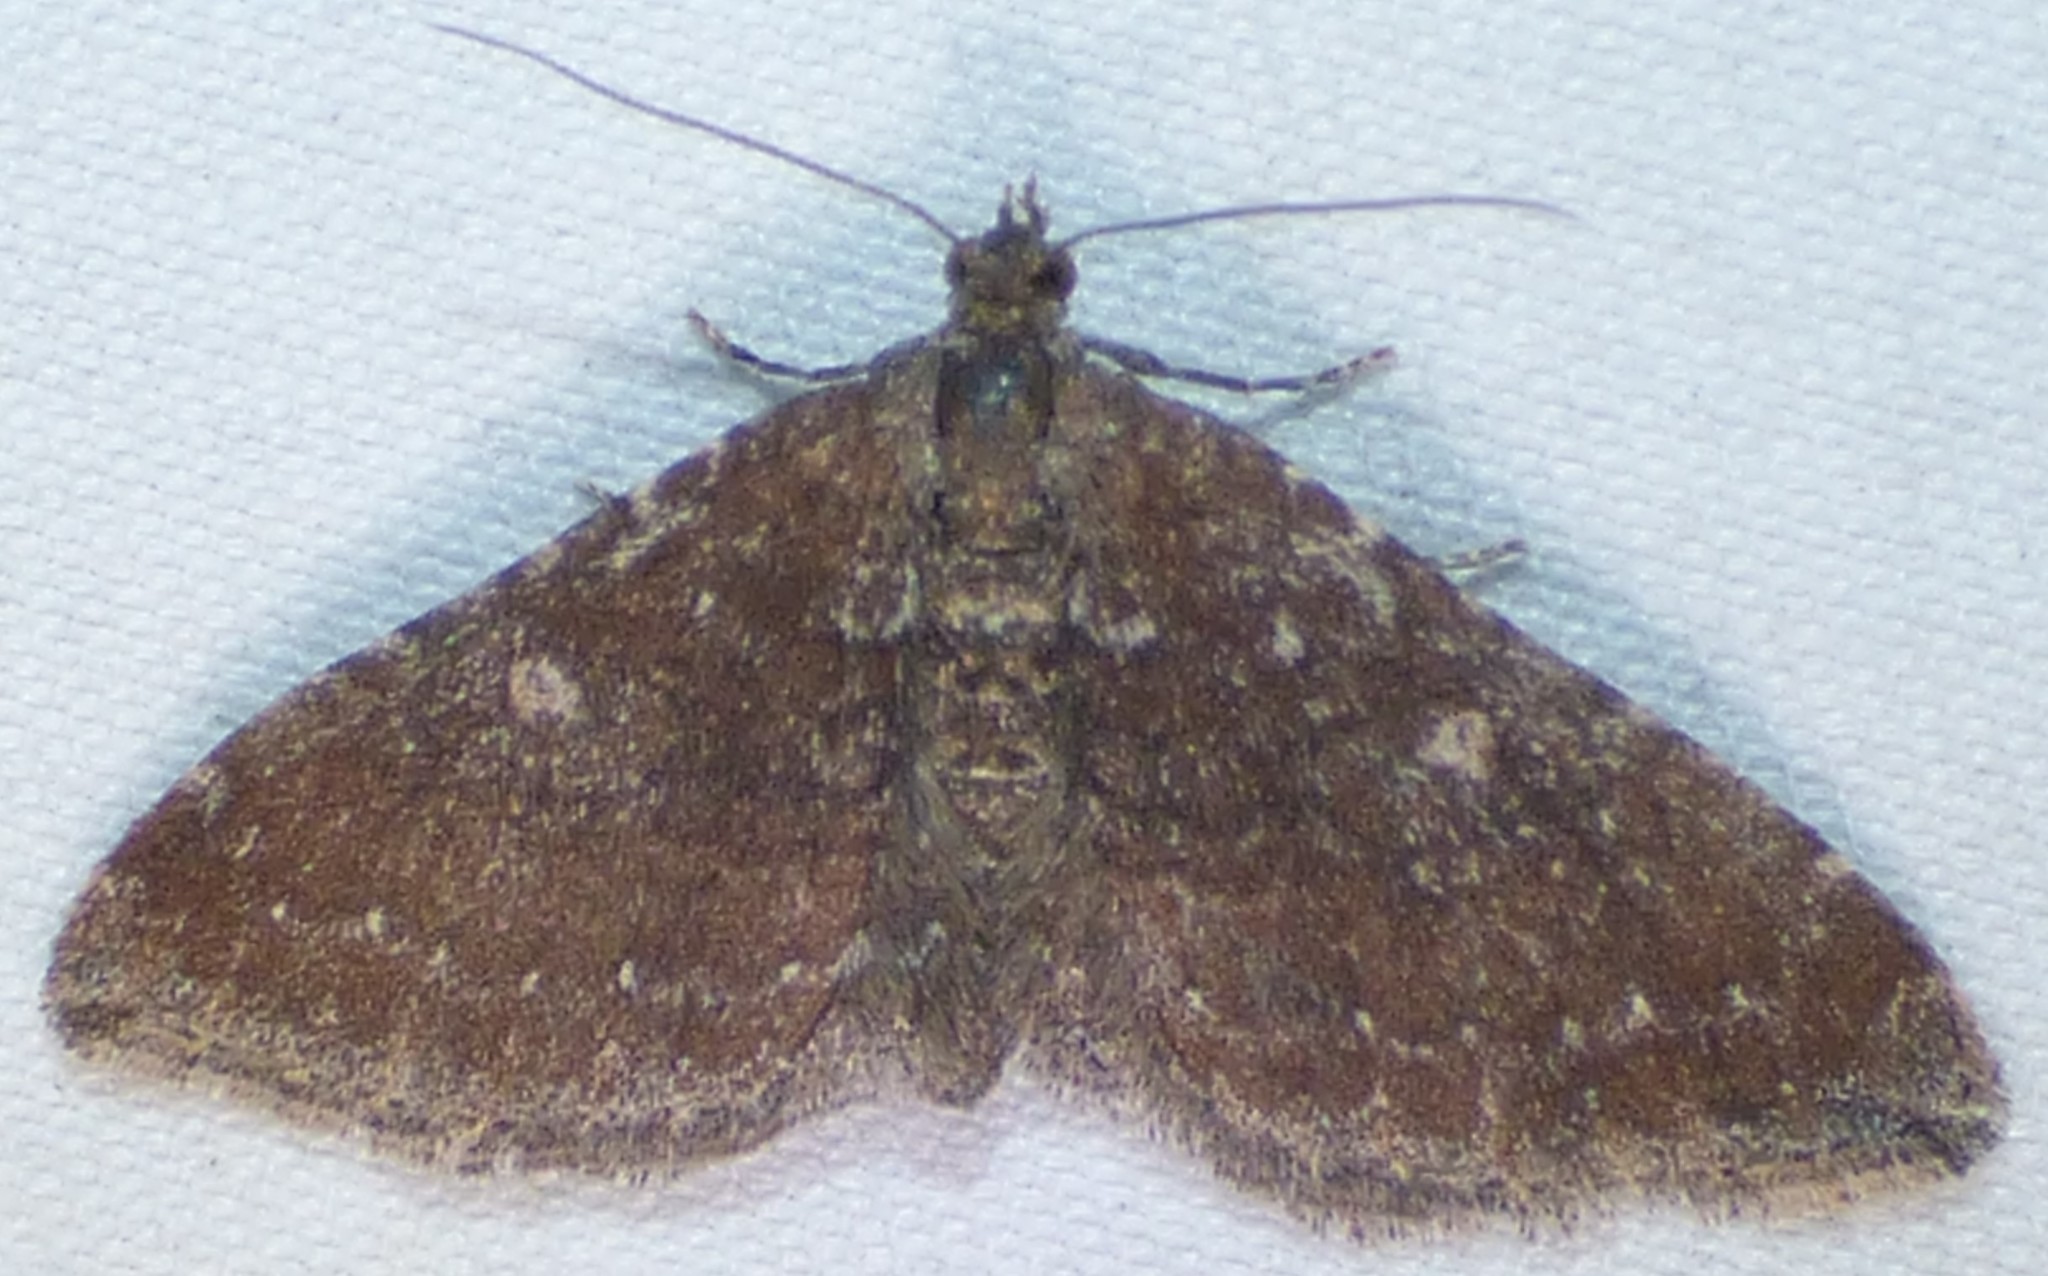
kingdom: Animalia
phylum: Arthropoda
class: Insecta
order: Lepidoptera
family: Geometridae
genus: Orthonama
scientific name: Orthonama obstipata
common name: The gem
